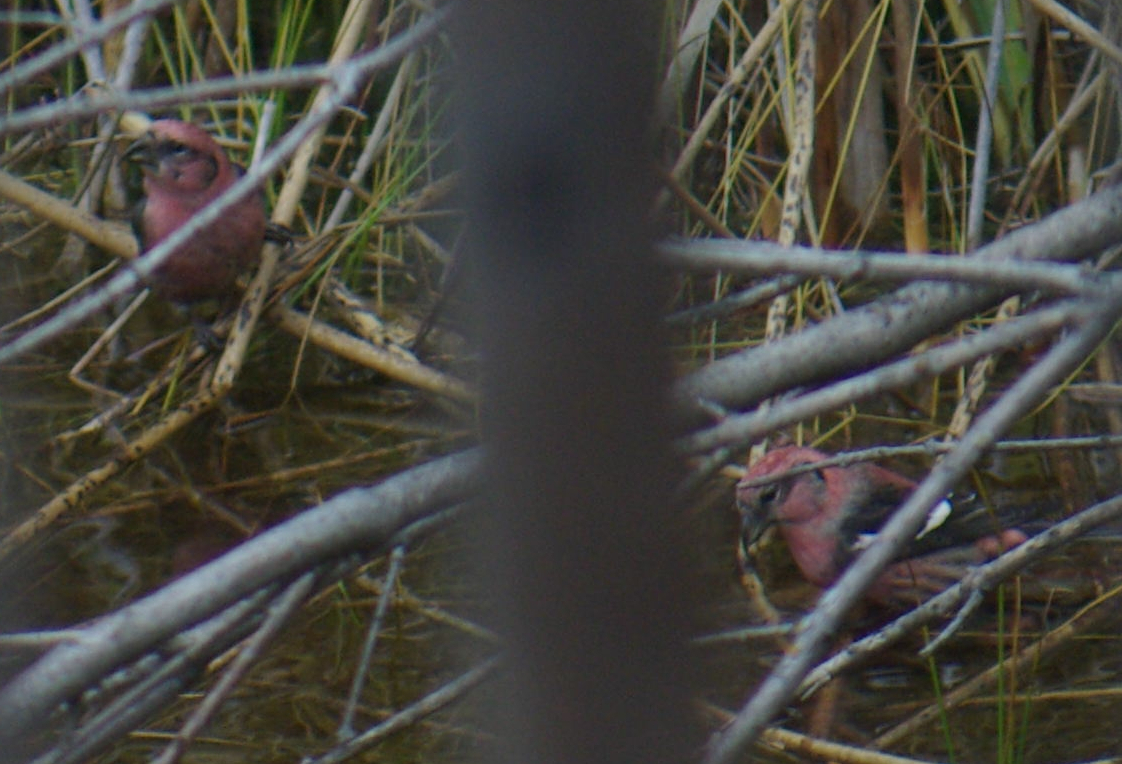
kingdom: Animalia
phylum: Chordata
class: Aves
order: Passeriformes
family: Fringillidae
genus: Loxia
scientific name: Loxia leucoptera
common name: Two-barred crossbill
